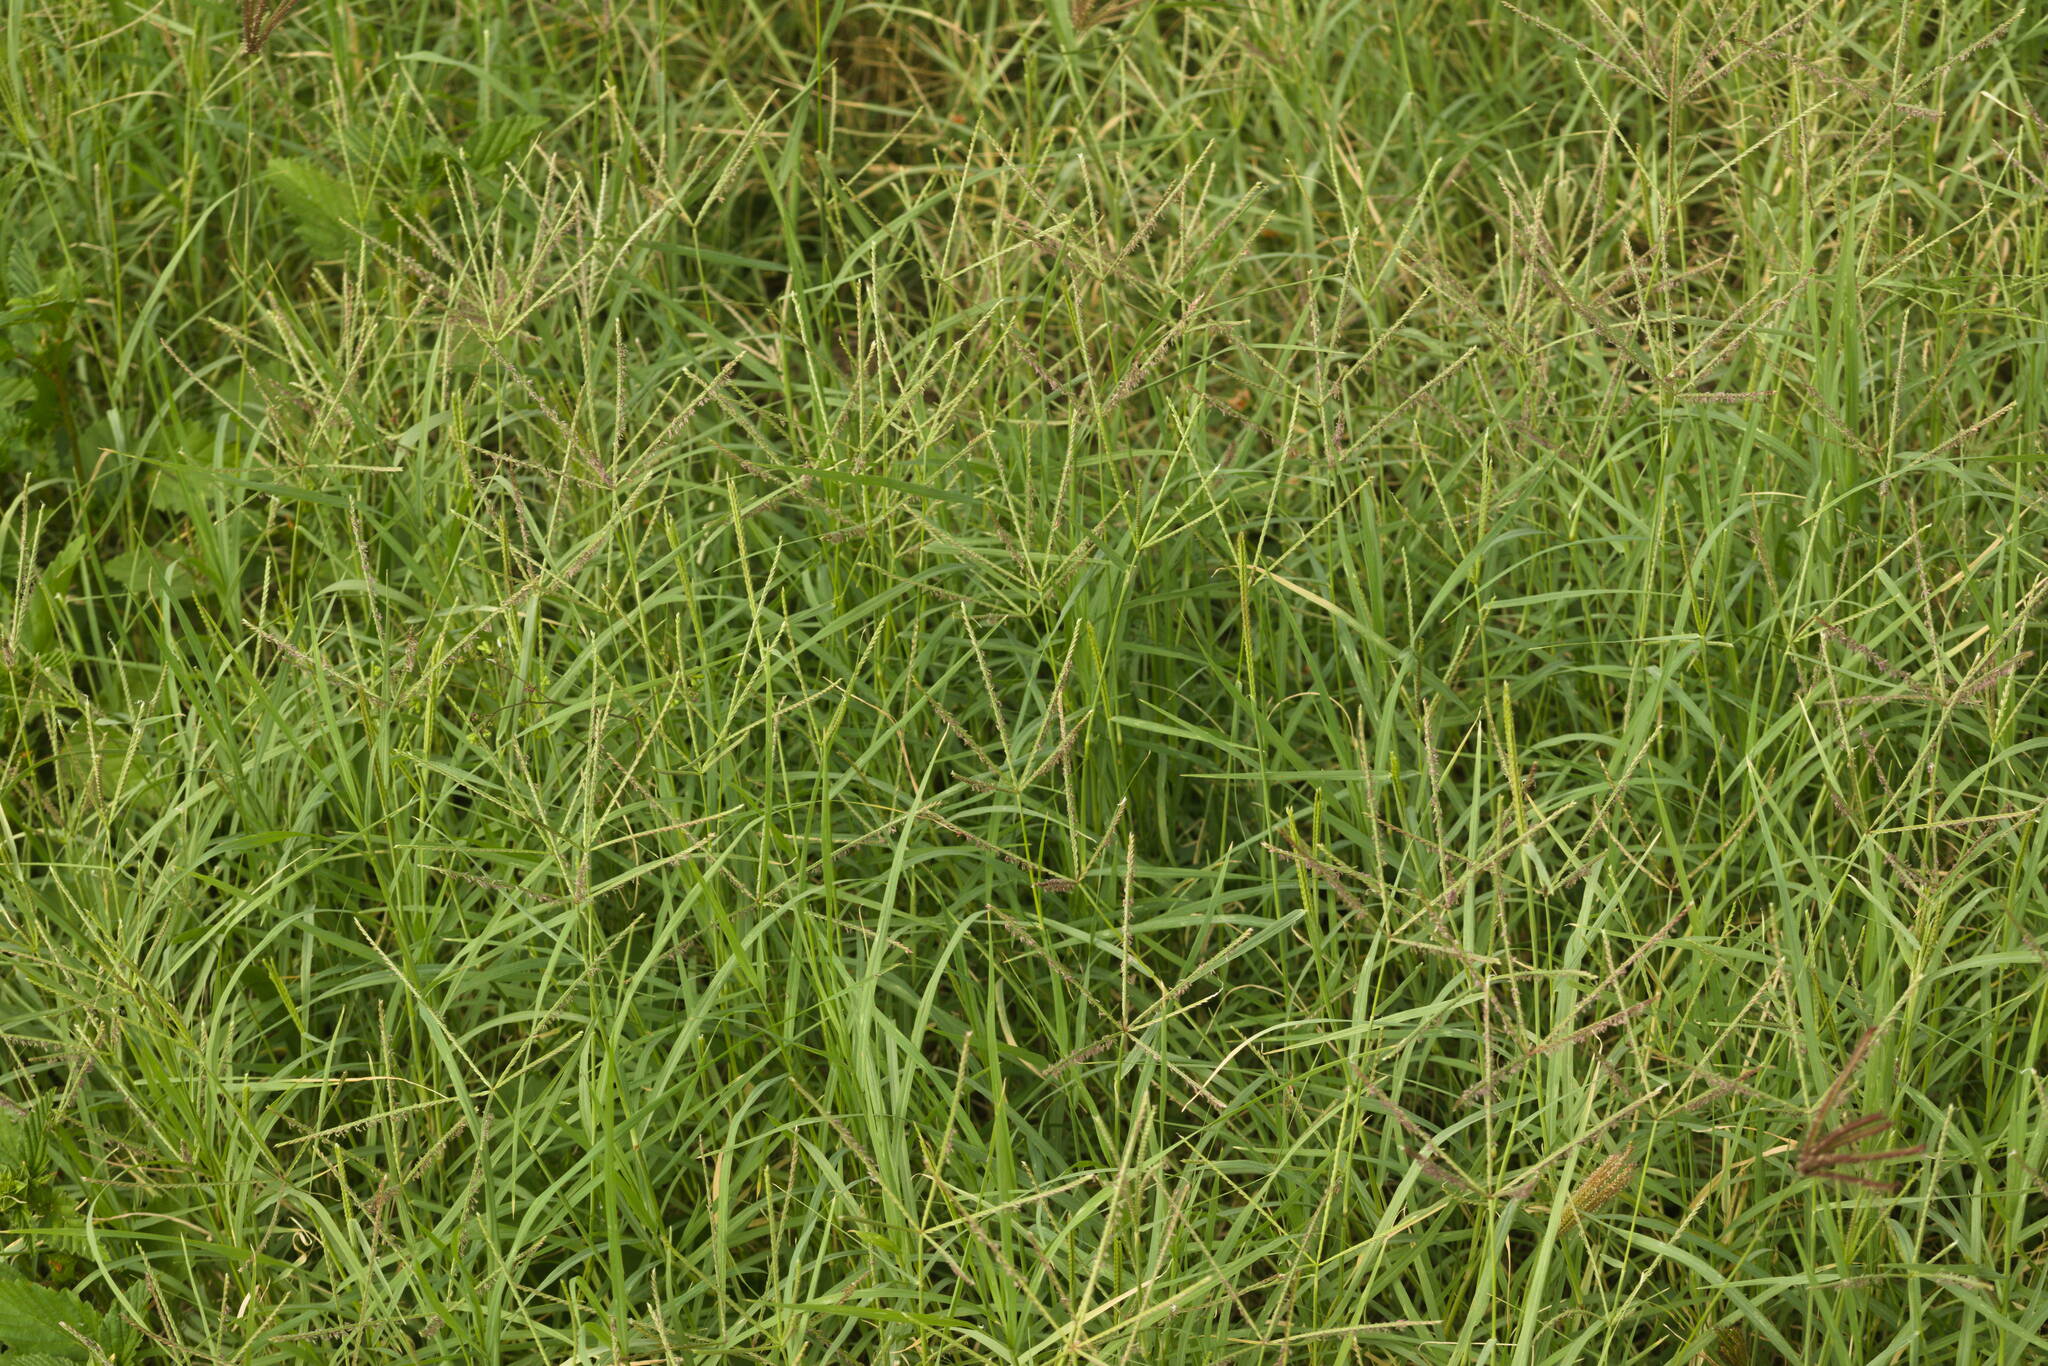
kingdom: Plantae
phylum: Tracheophyta
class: Liliopsida
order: Poales
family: Poaceae
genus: Cynodon
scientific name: Cynodon nlemfuensis
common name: African bermudagrass
